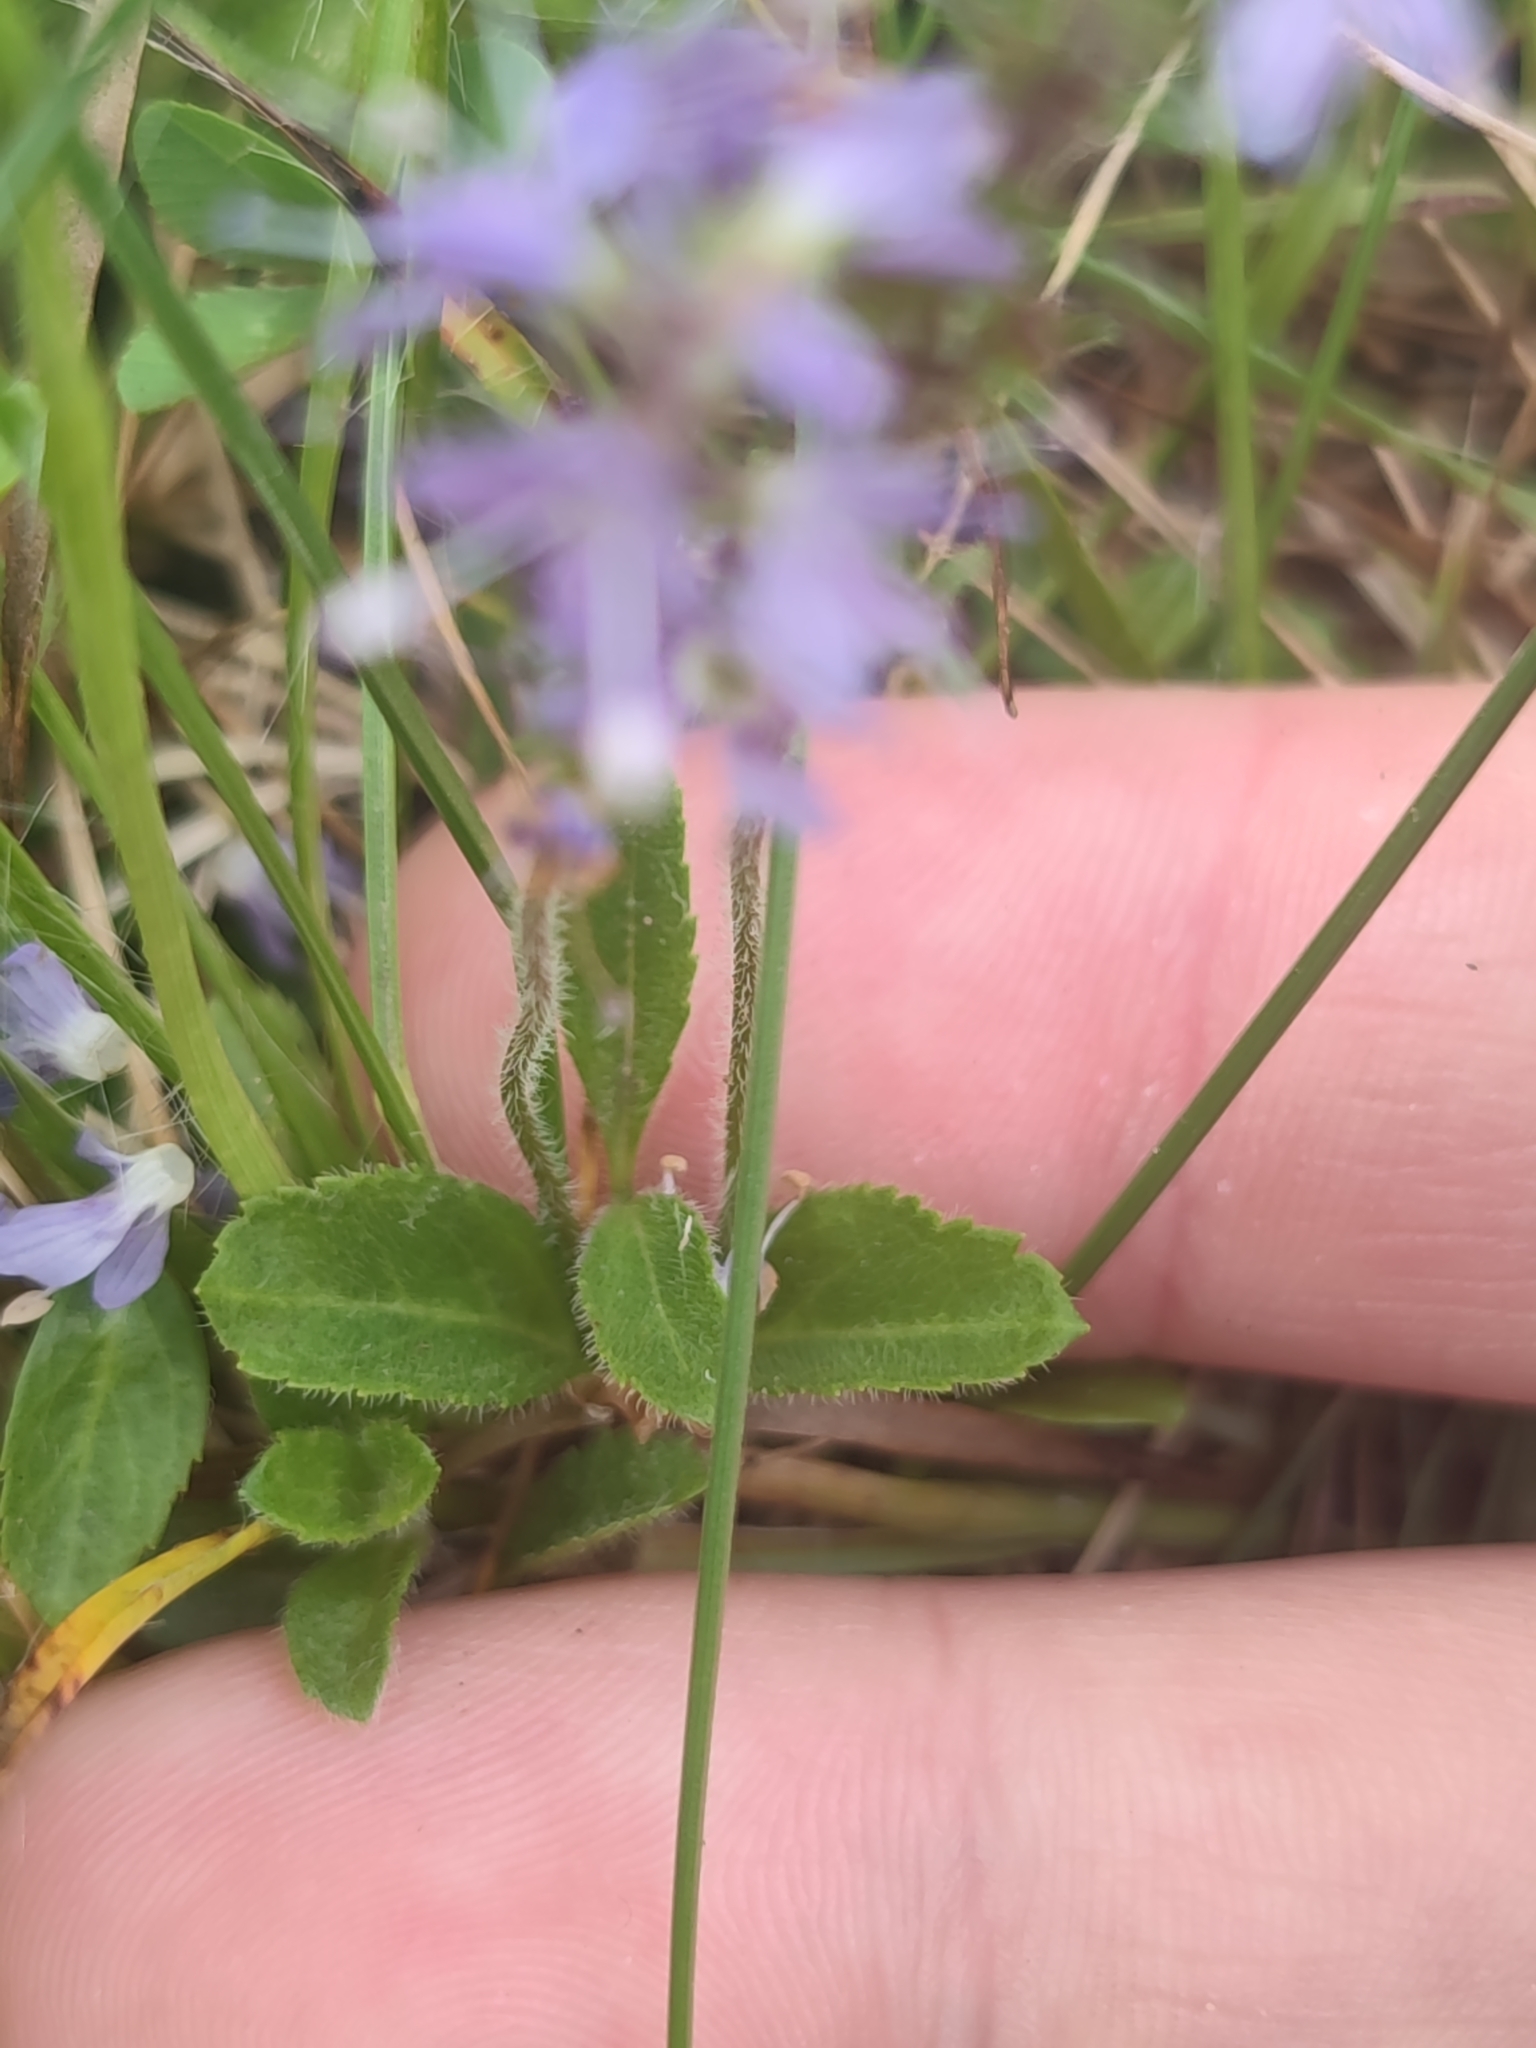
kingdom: Plantae
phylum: Tracheophyta
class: Magnoliopsida
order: Lamiales
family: Plantaginaceae
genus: Veronica
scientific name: Veronica officinalis
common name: Common speedwell
